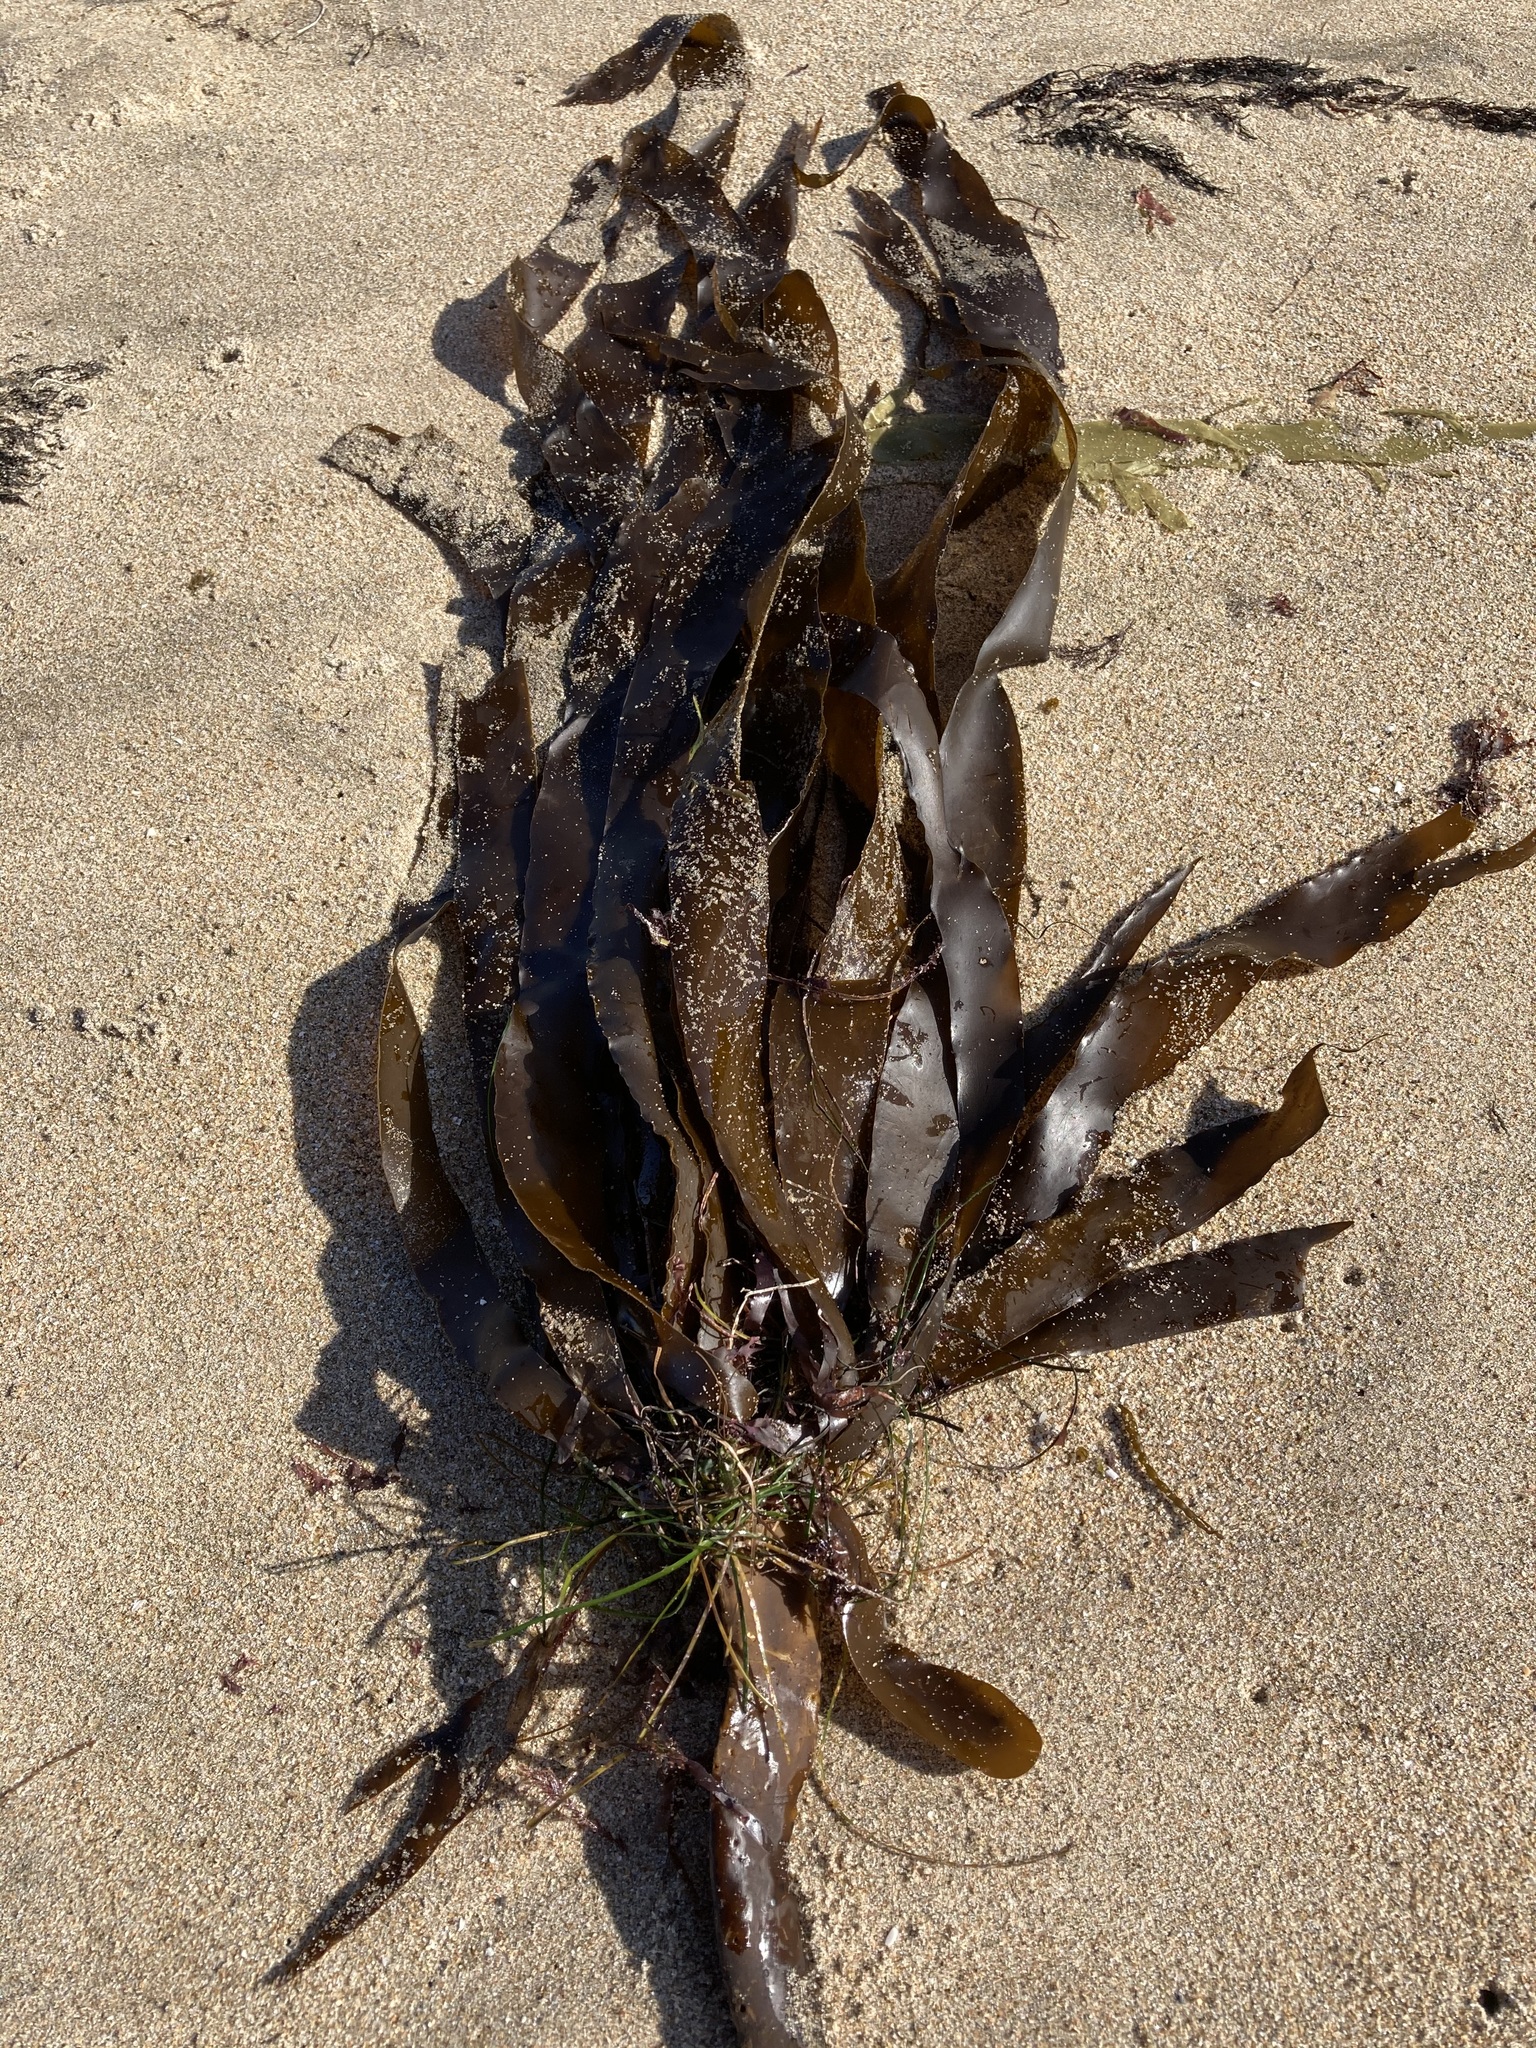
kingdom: Chromista
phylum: Ochrophyta
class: Phaeophyceae
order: Laminariales
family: Alariaceae
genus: Pterygophora
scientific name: Pterygophora californica
